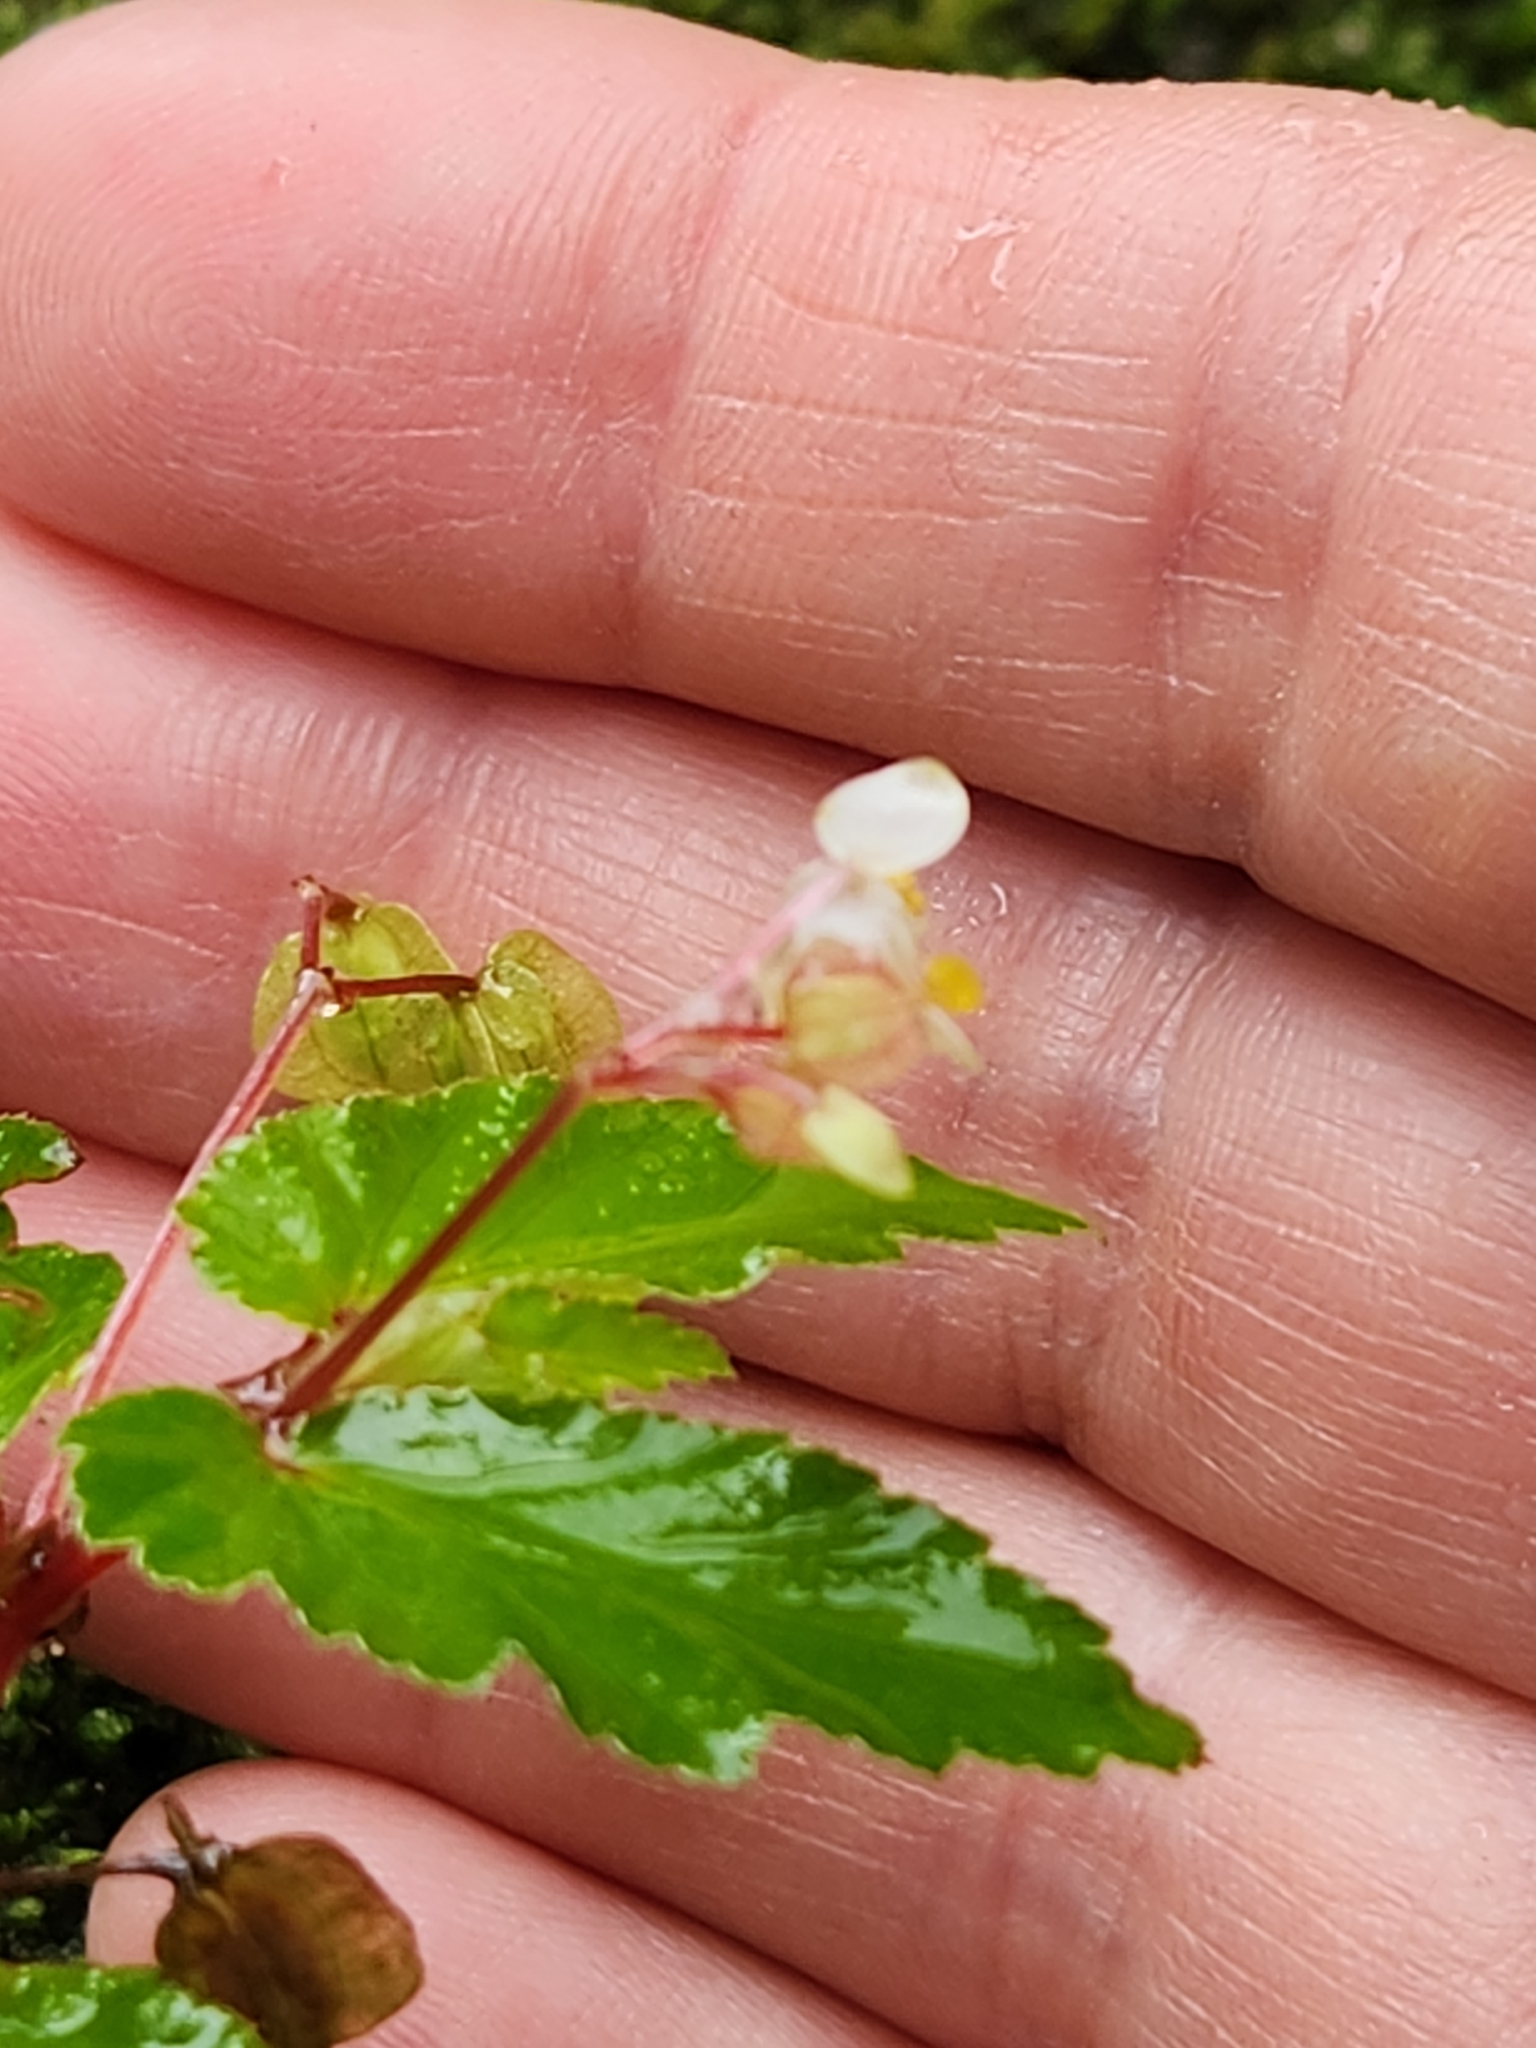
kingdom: Plantae
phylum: Tracheophyta
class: Magnoliopsida
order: Cucurbitales
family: Begoniaceae
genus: Begonia
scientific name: Begonia semiovata
